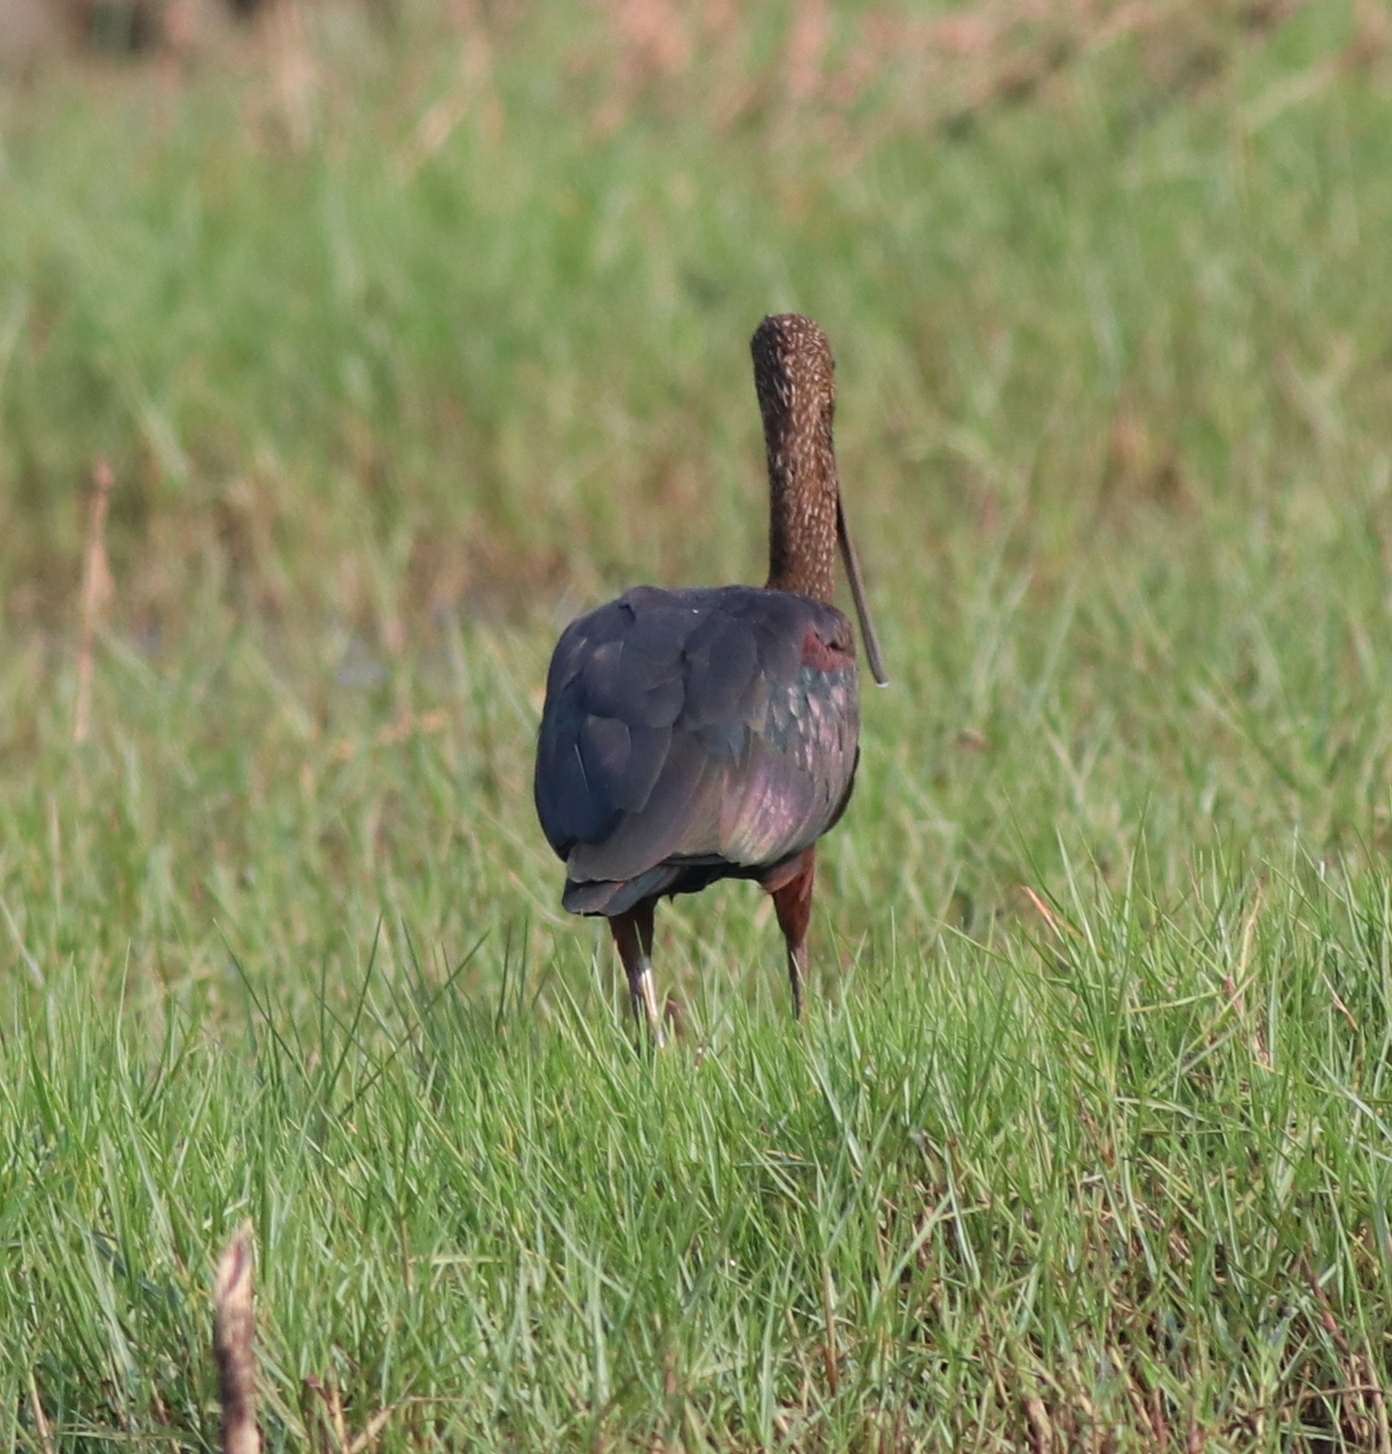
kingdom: Animalia
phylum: Chordata
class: Aves
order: Pelecaniformes
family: Threskiornithidae
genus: Plegadis
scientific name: Plegadis falcinellus
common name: Glossy ibis
